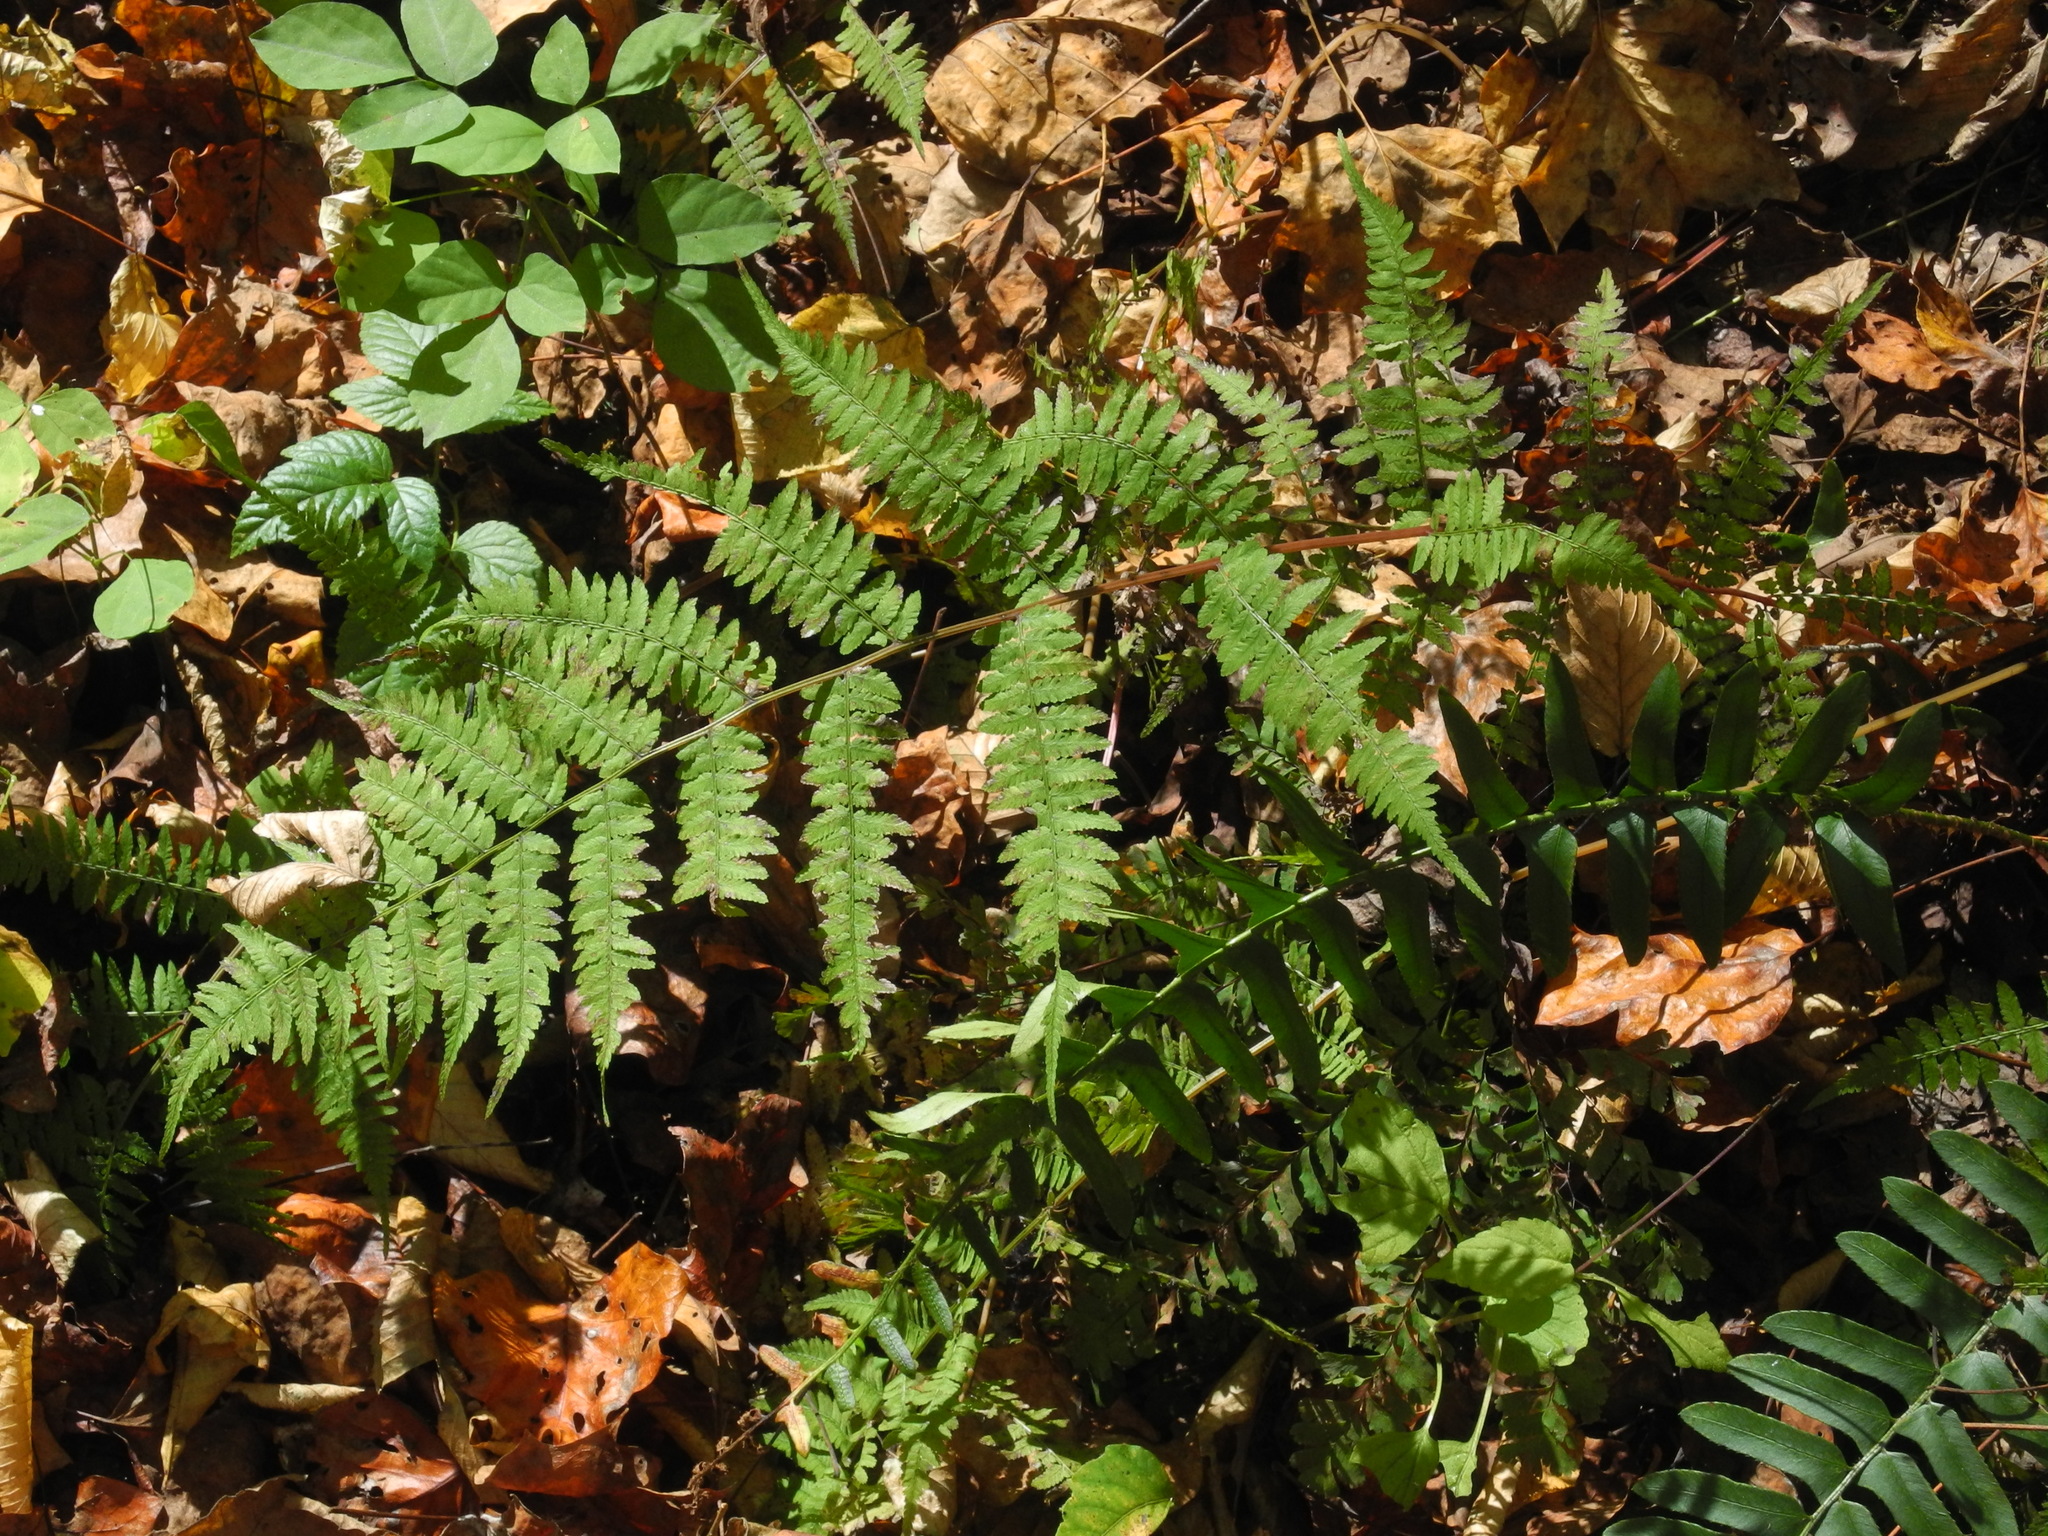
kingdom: Plantae
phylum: Tracheophyta
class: Polypodiopsida
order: Polypodiales
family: Athyriaceae
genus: Athyrium
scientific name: Athyrium asplenioides
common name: Southern lady fern
